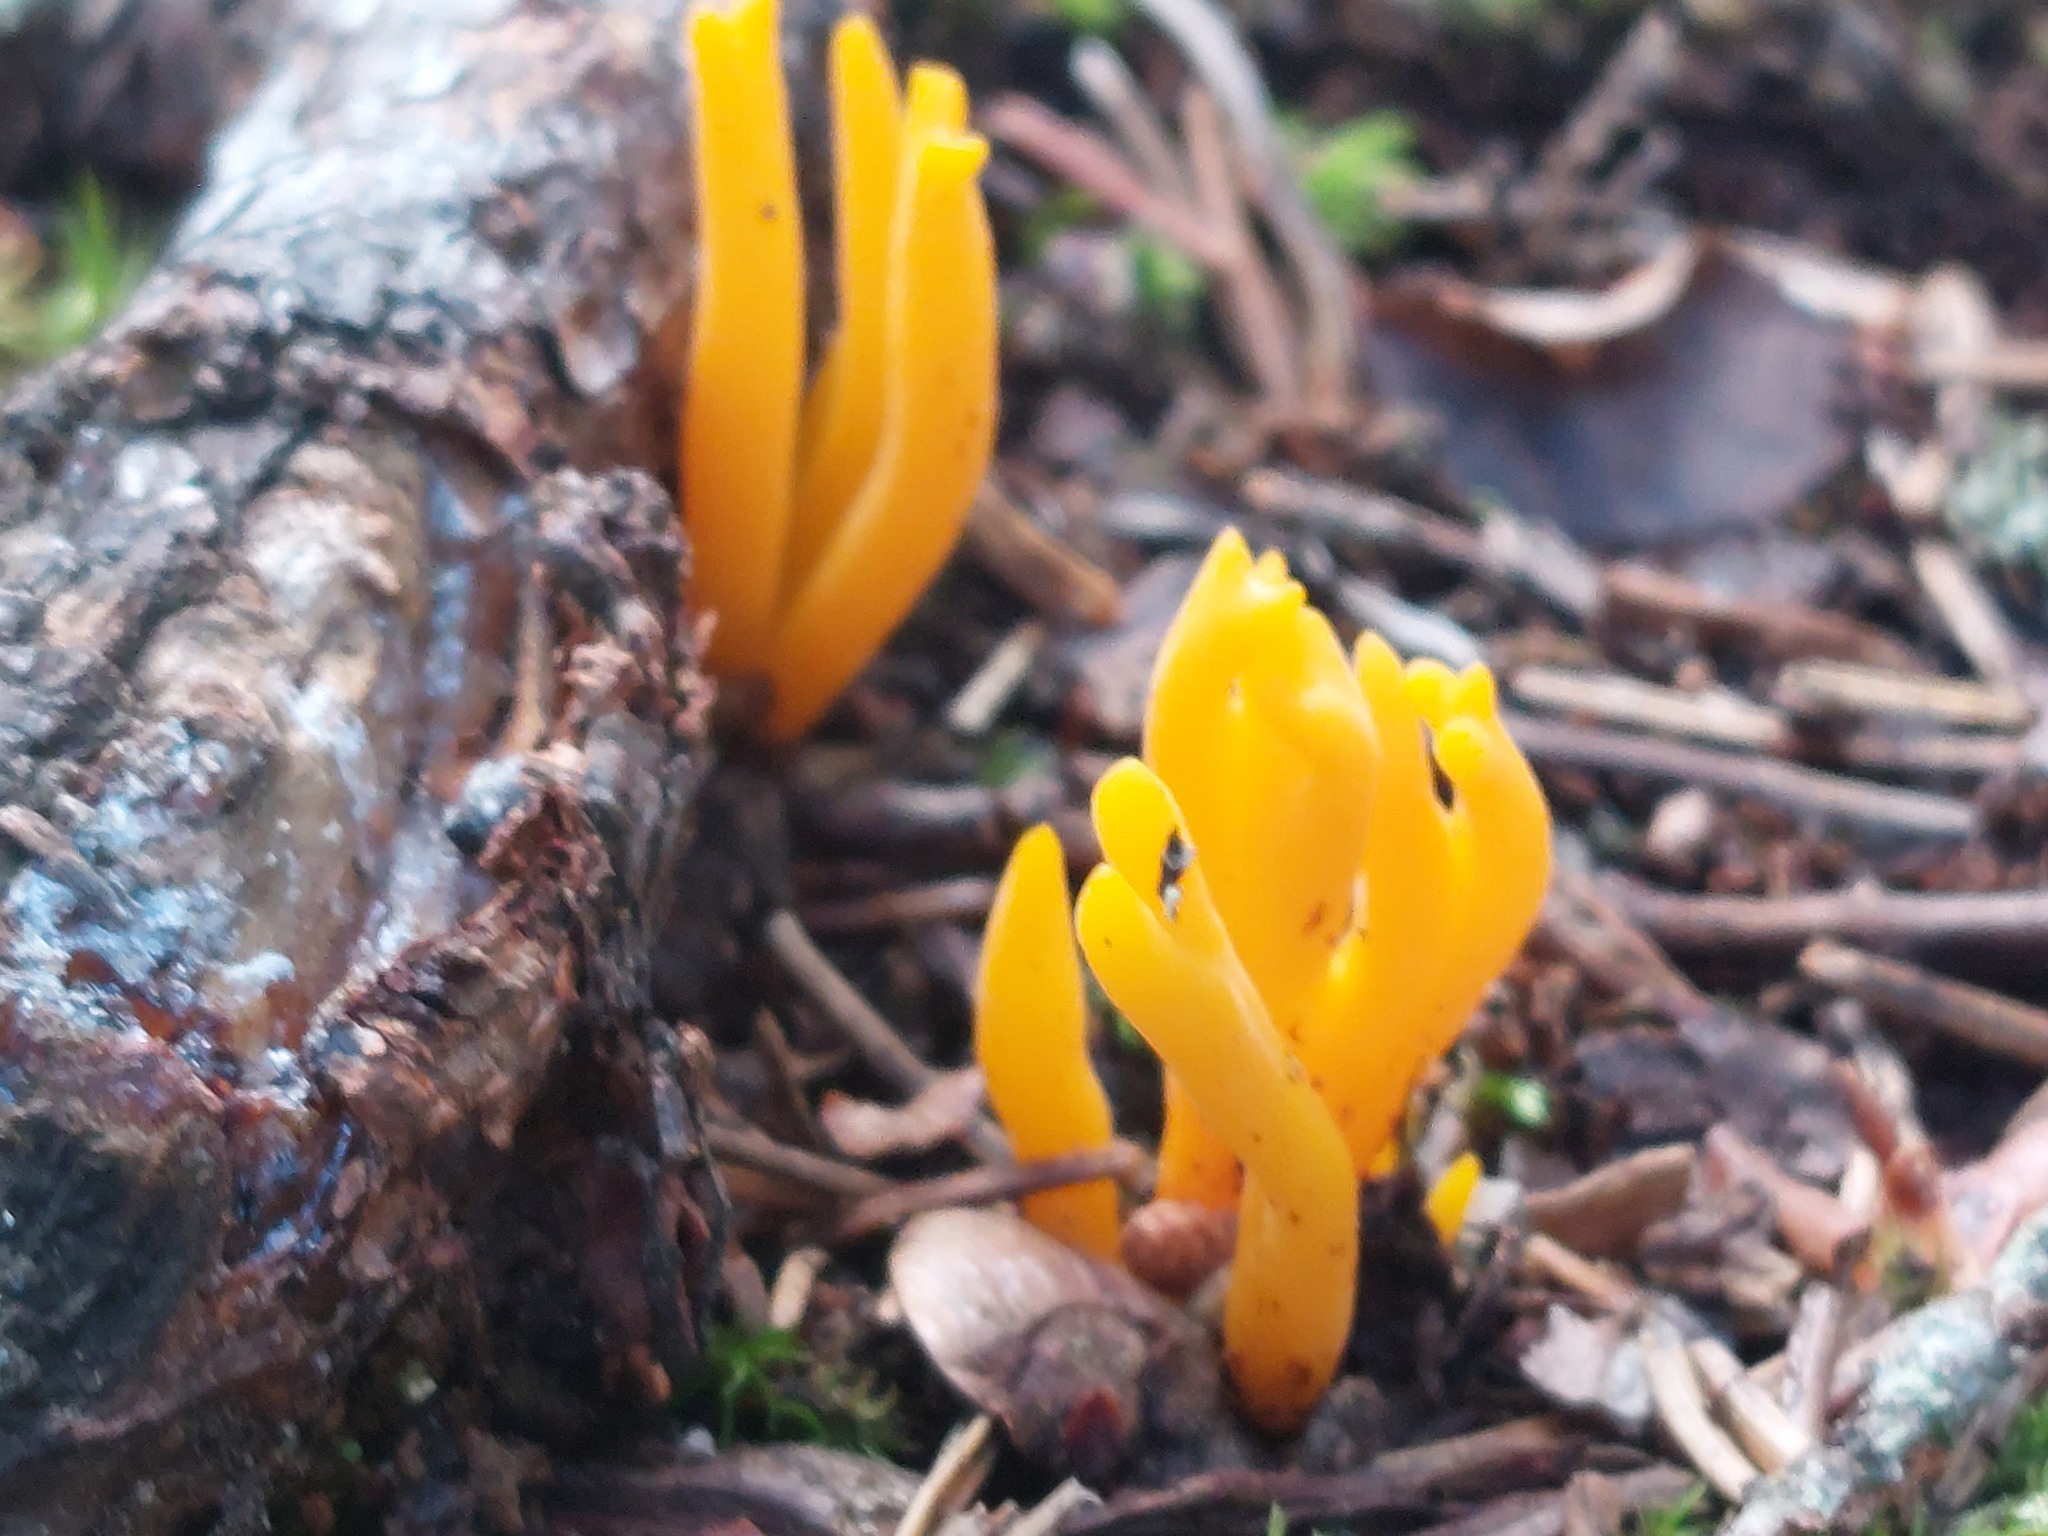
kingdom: Fungi
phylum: Basidiomycota
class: Dacrymycetes
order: Dacrymycetales
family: Dacrymycetaceae
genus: Calocera
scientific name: Calocera viscosa
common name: Yellow stagshorn
